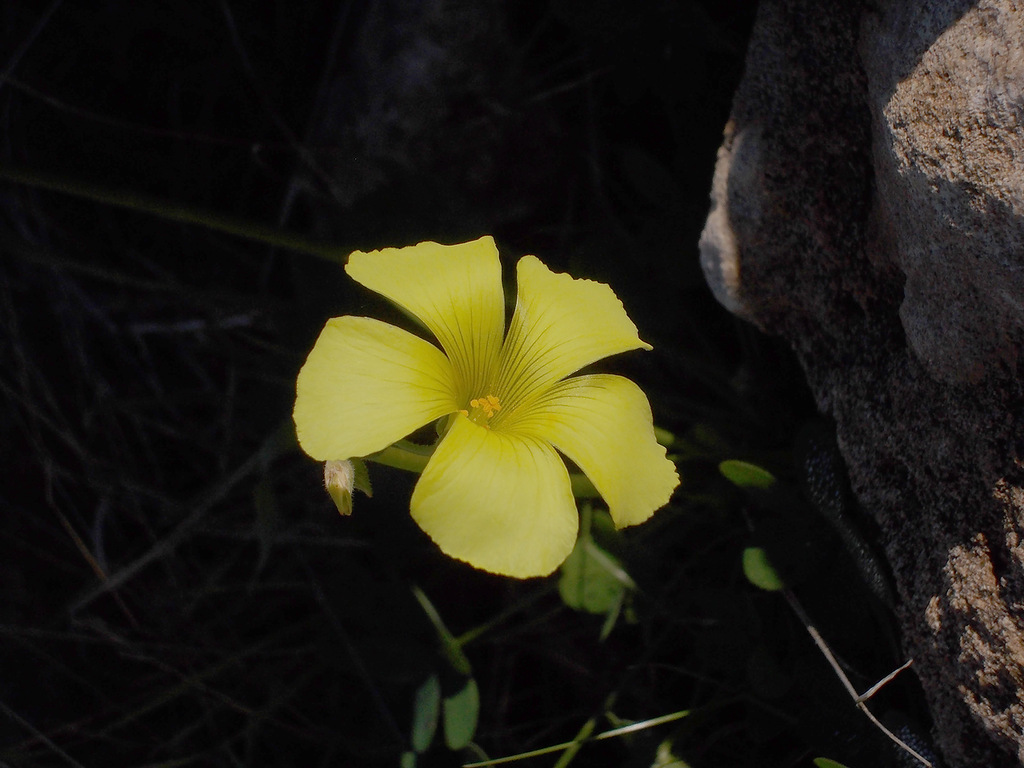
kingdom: Plantae
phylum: Tracheophyta
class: Magnoliopsida
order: Oxalidales
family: Oxalidaceae
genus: Oxalis
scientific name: Oxalis pes-caprae
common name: Bermuda-buttercup
